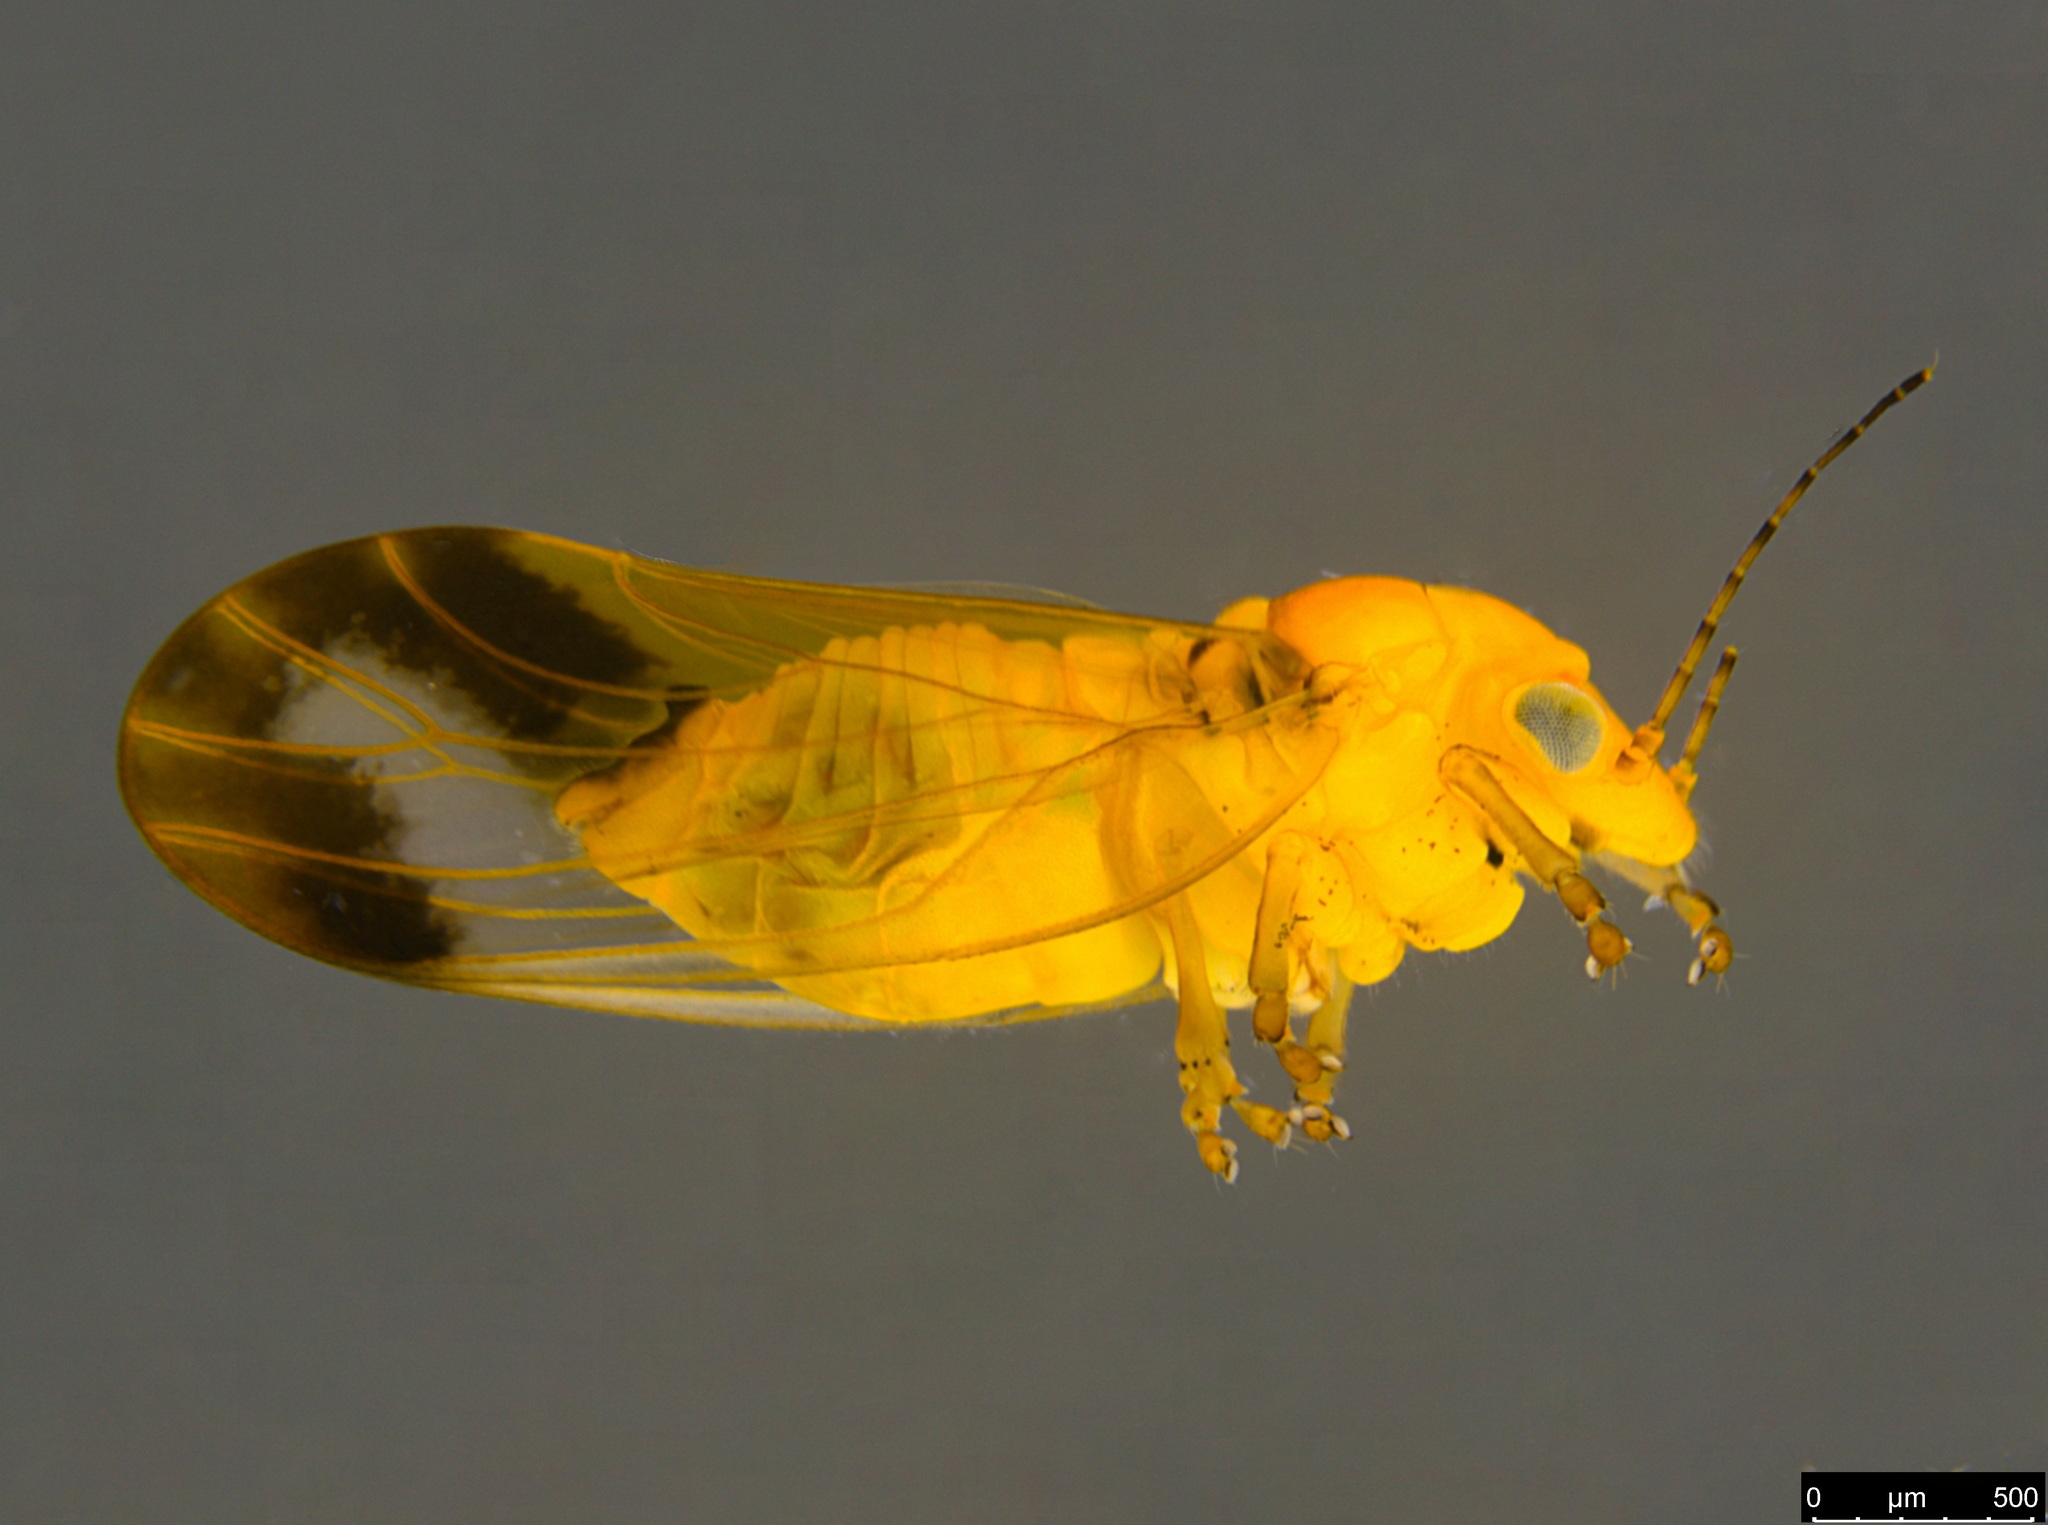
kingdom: Animalia
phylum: Arthropoda
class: Insecta
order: Hemiptera
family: Aphalaridae
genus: Australopsylla
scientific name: Australopsylla revoluta
